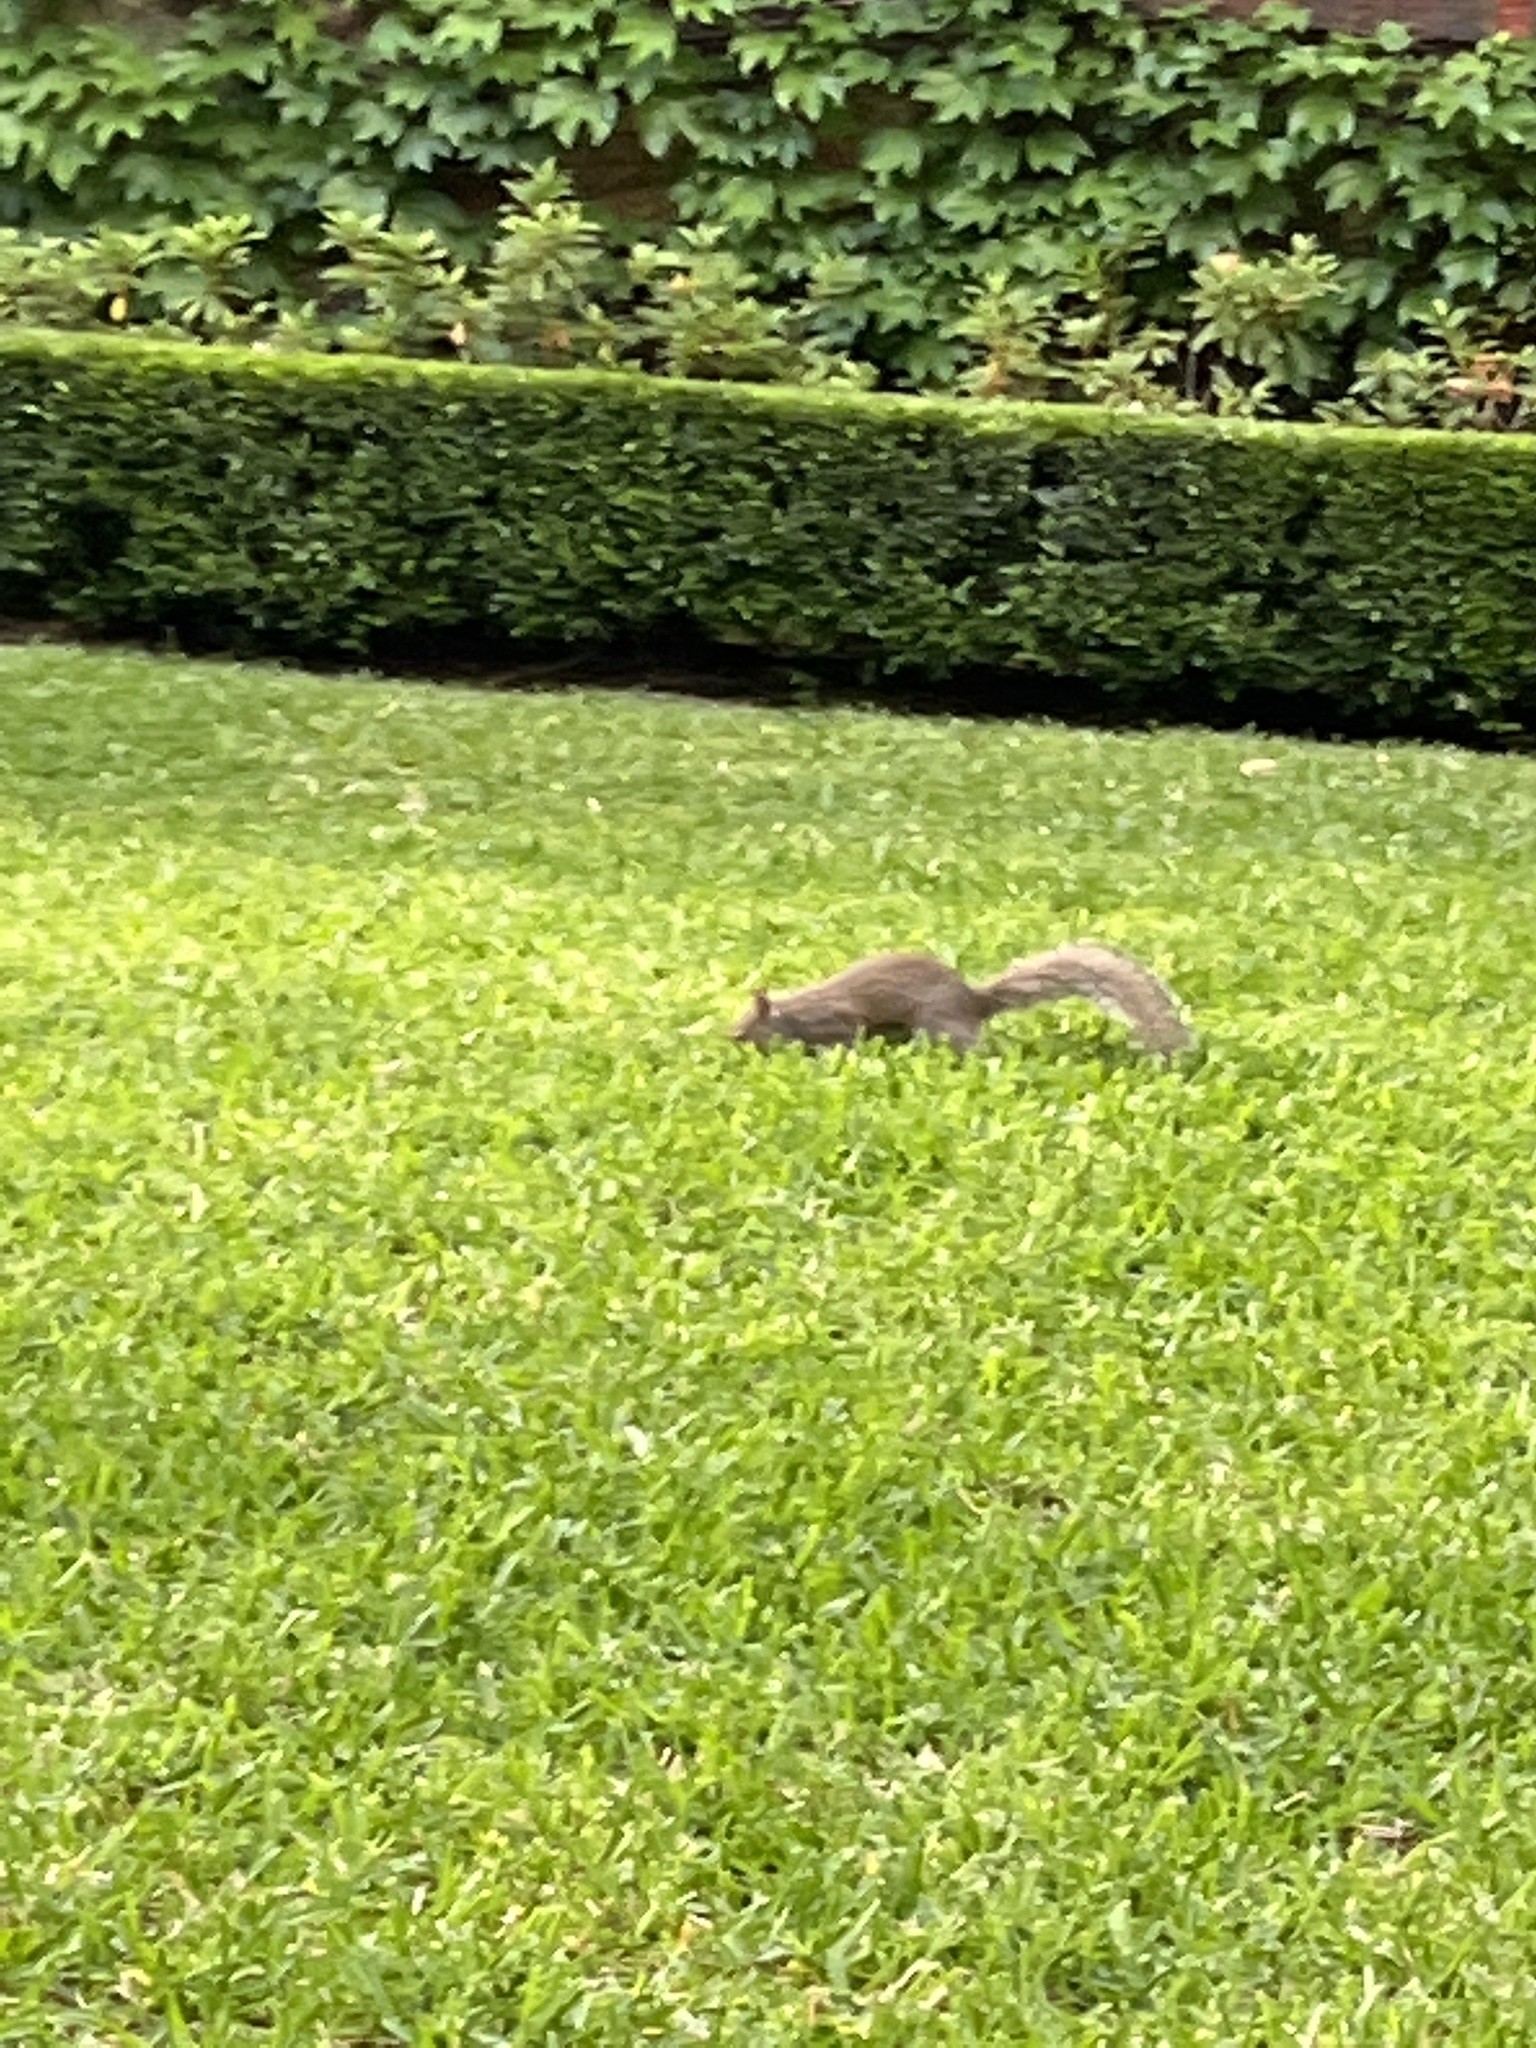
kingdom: Animalia
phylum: Chordata
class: Mammalia
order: Rodentia
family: Sciuridae
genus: Sciurus
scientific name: Sciurus carolinensis
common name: Eastern gray squirrel
